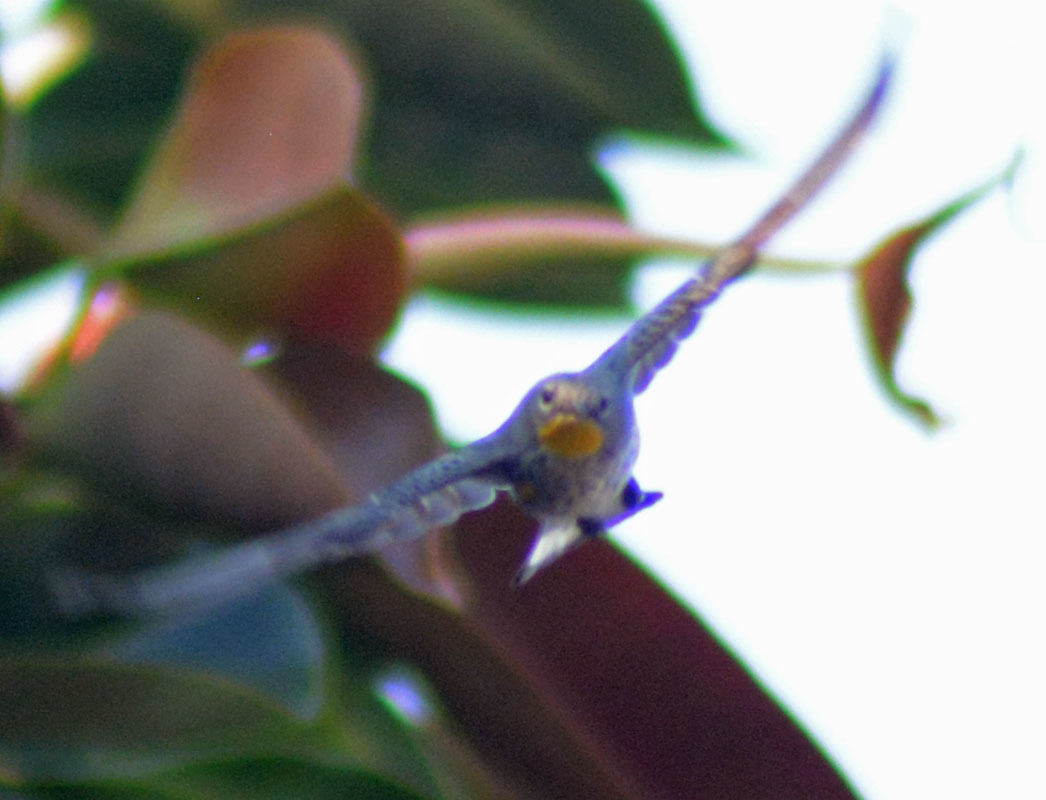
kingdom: Animalia
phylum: Chordata
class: Aves
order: Passeriformes
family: Parulidae
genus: Setophaga
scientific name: Setophaga auduboni
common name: Audubon's warbler
